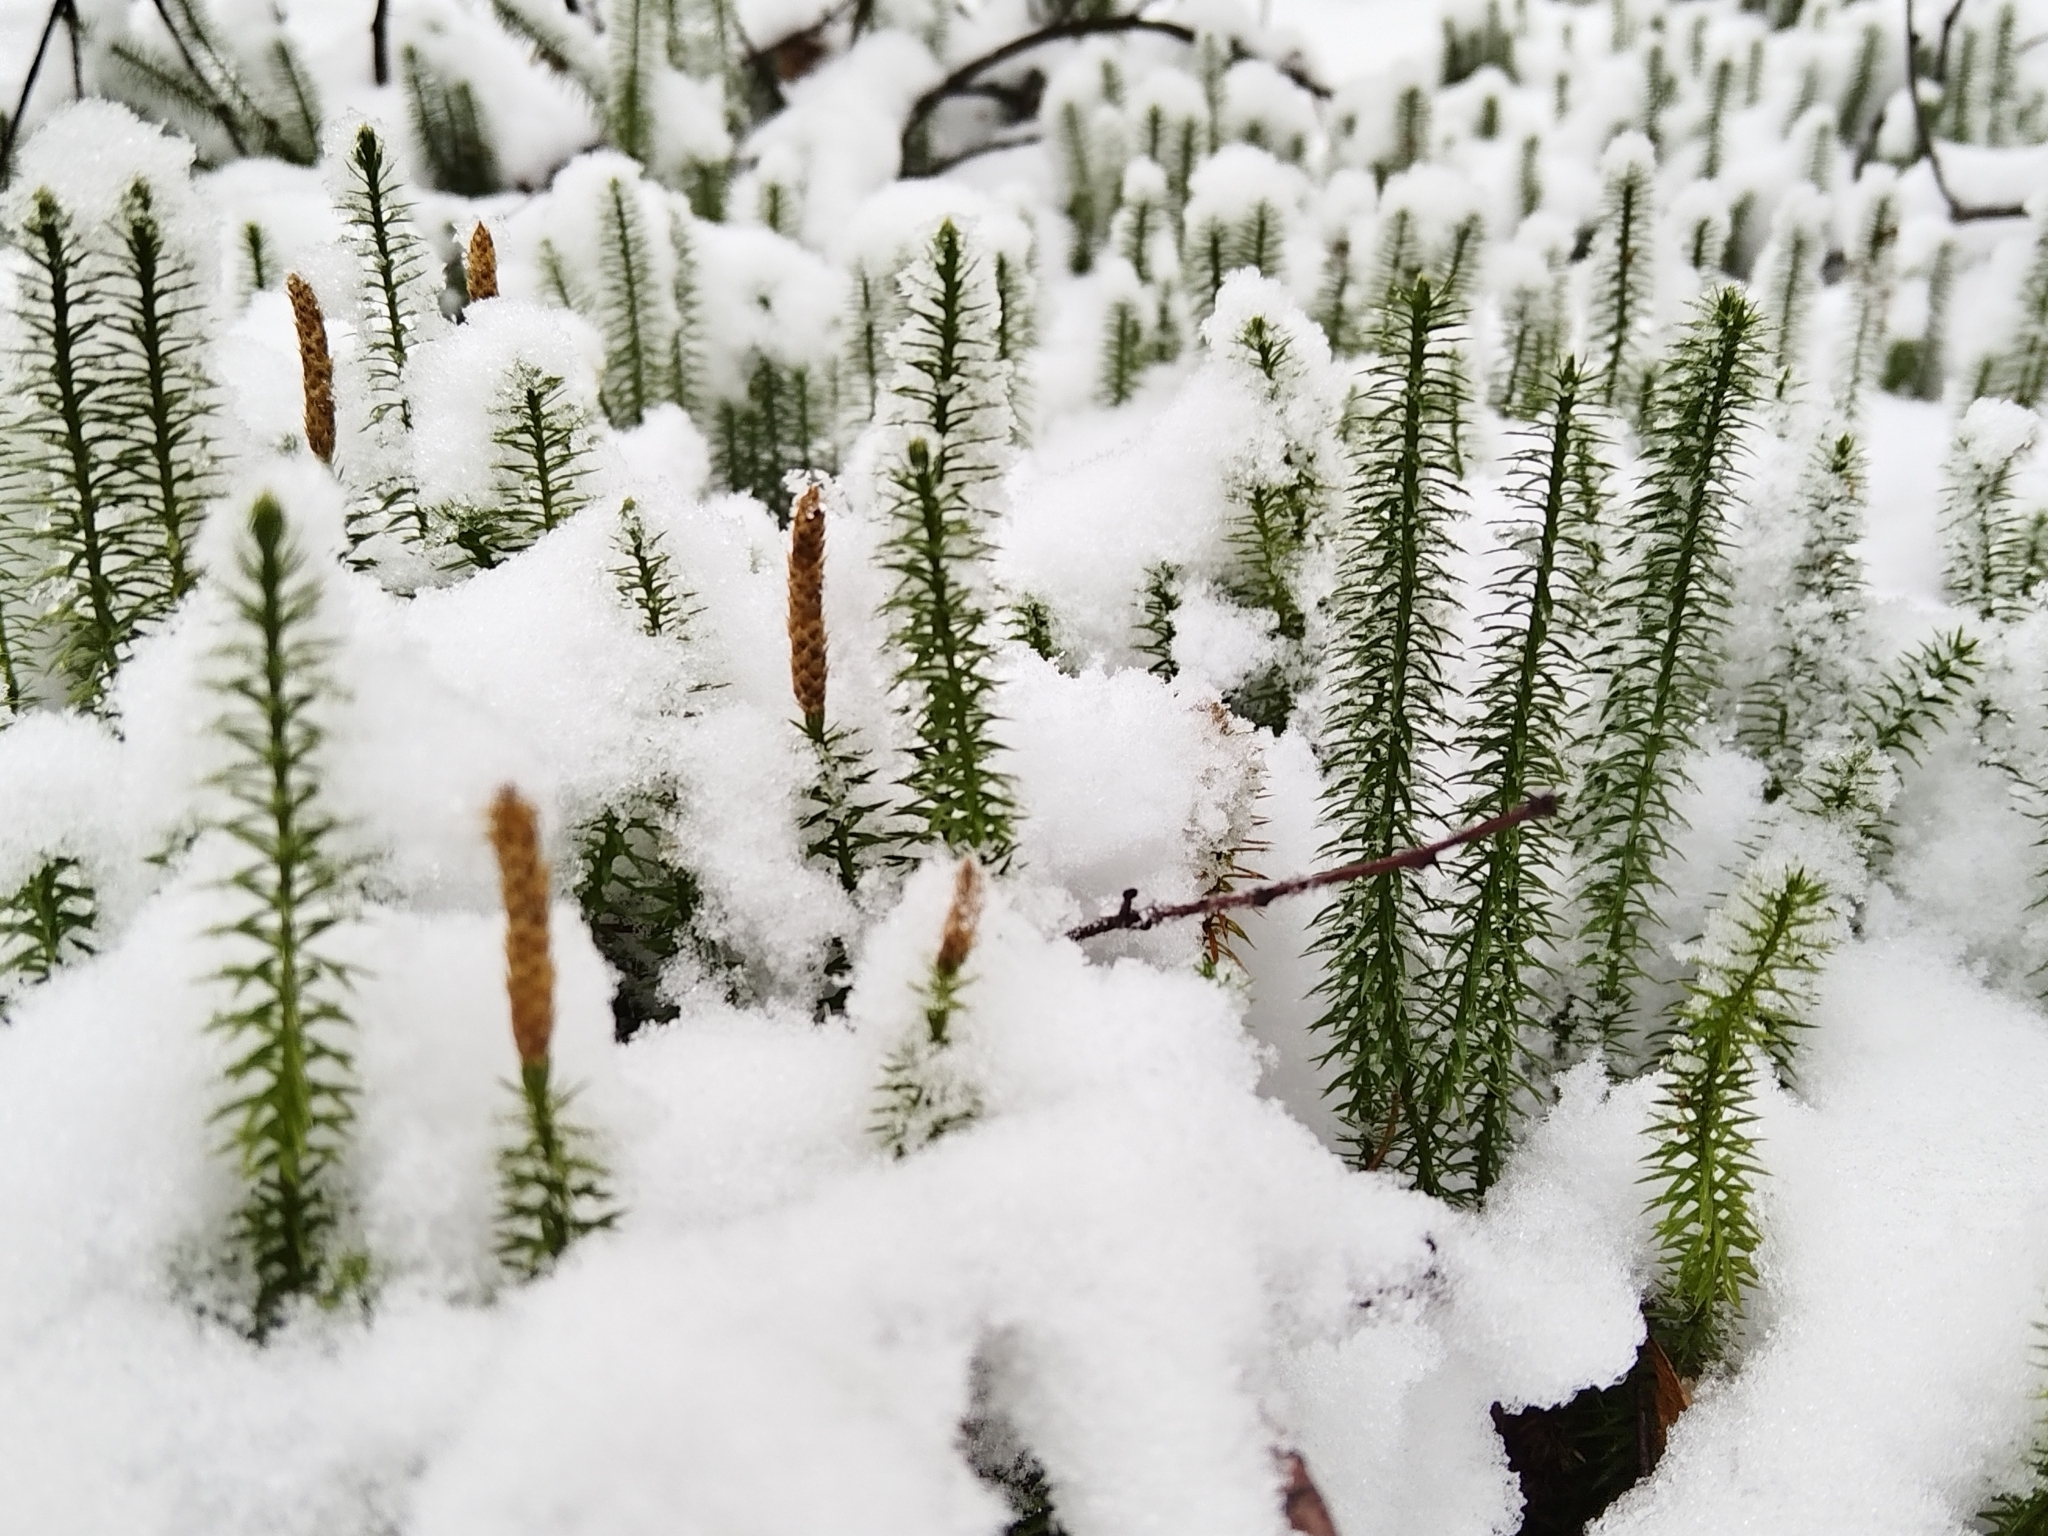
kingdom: Plantae
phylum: Tracheophyta
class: Lycopodiopsida
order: Lycopodiales
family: Lycopodiaceae
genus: Spinulum
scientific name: Spinulum annotinum
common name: Interrupted club-moss
